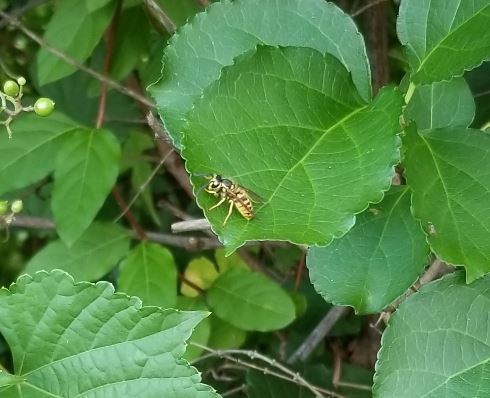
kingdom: Animalia
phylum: Arthropoda
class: Insecta
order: Hymenoptera
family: Vespidae
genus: Vespula
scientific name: Vespula
